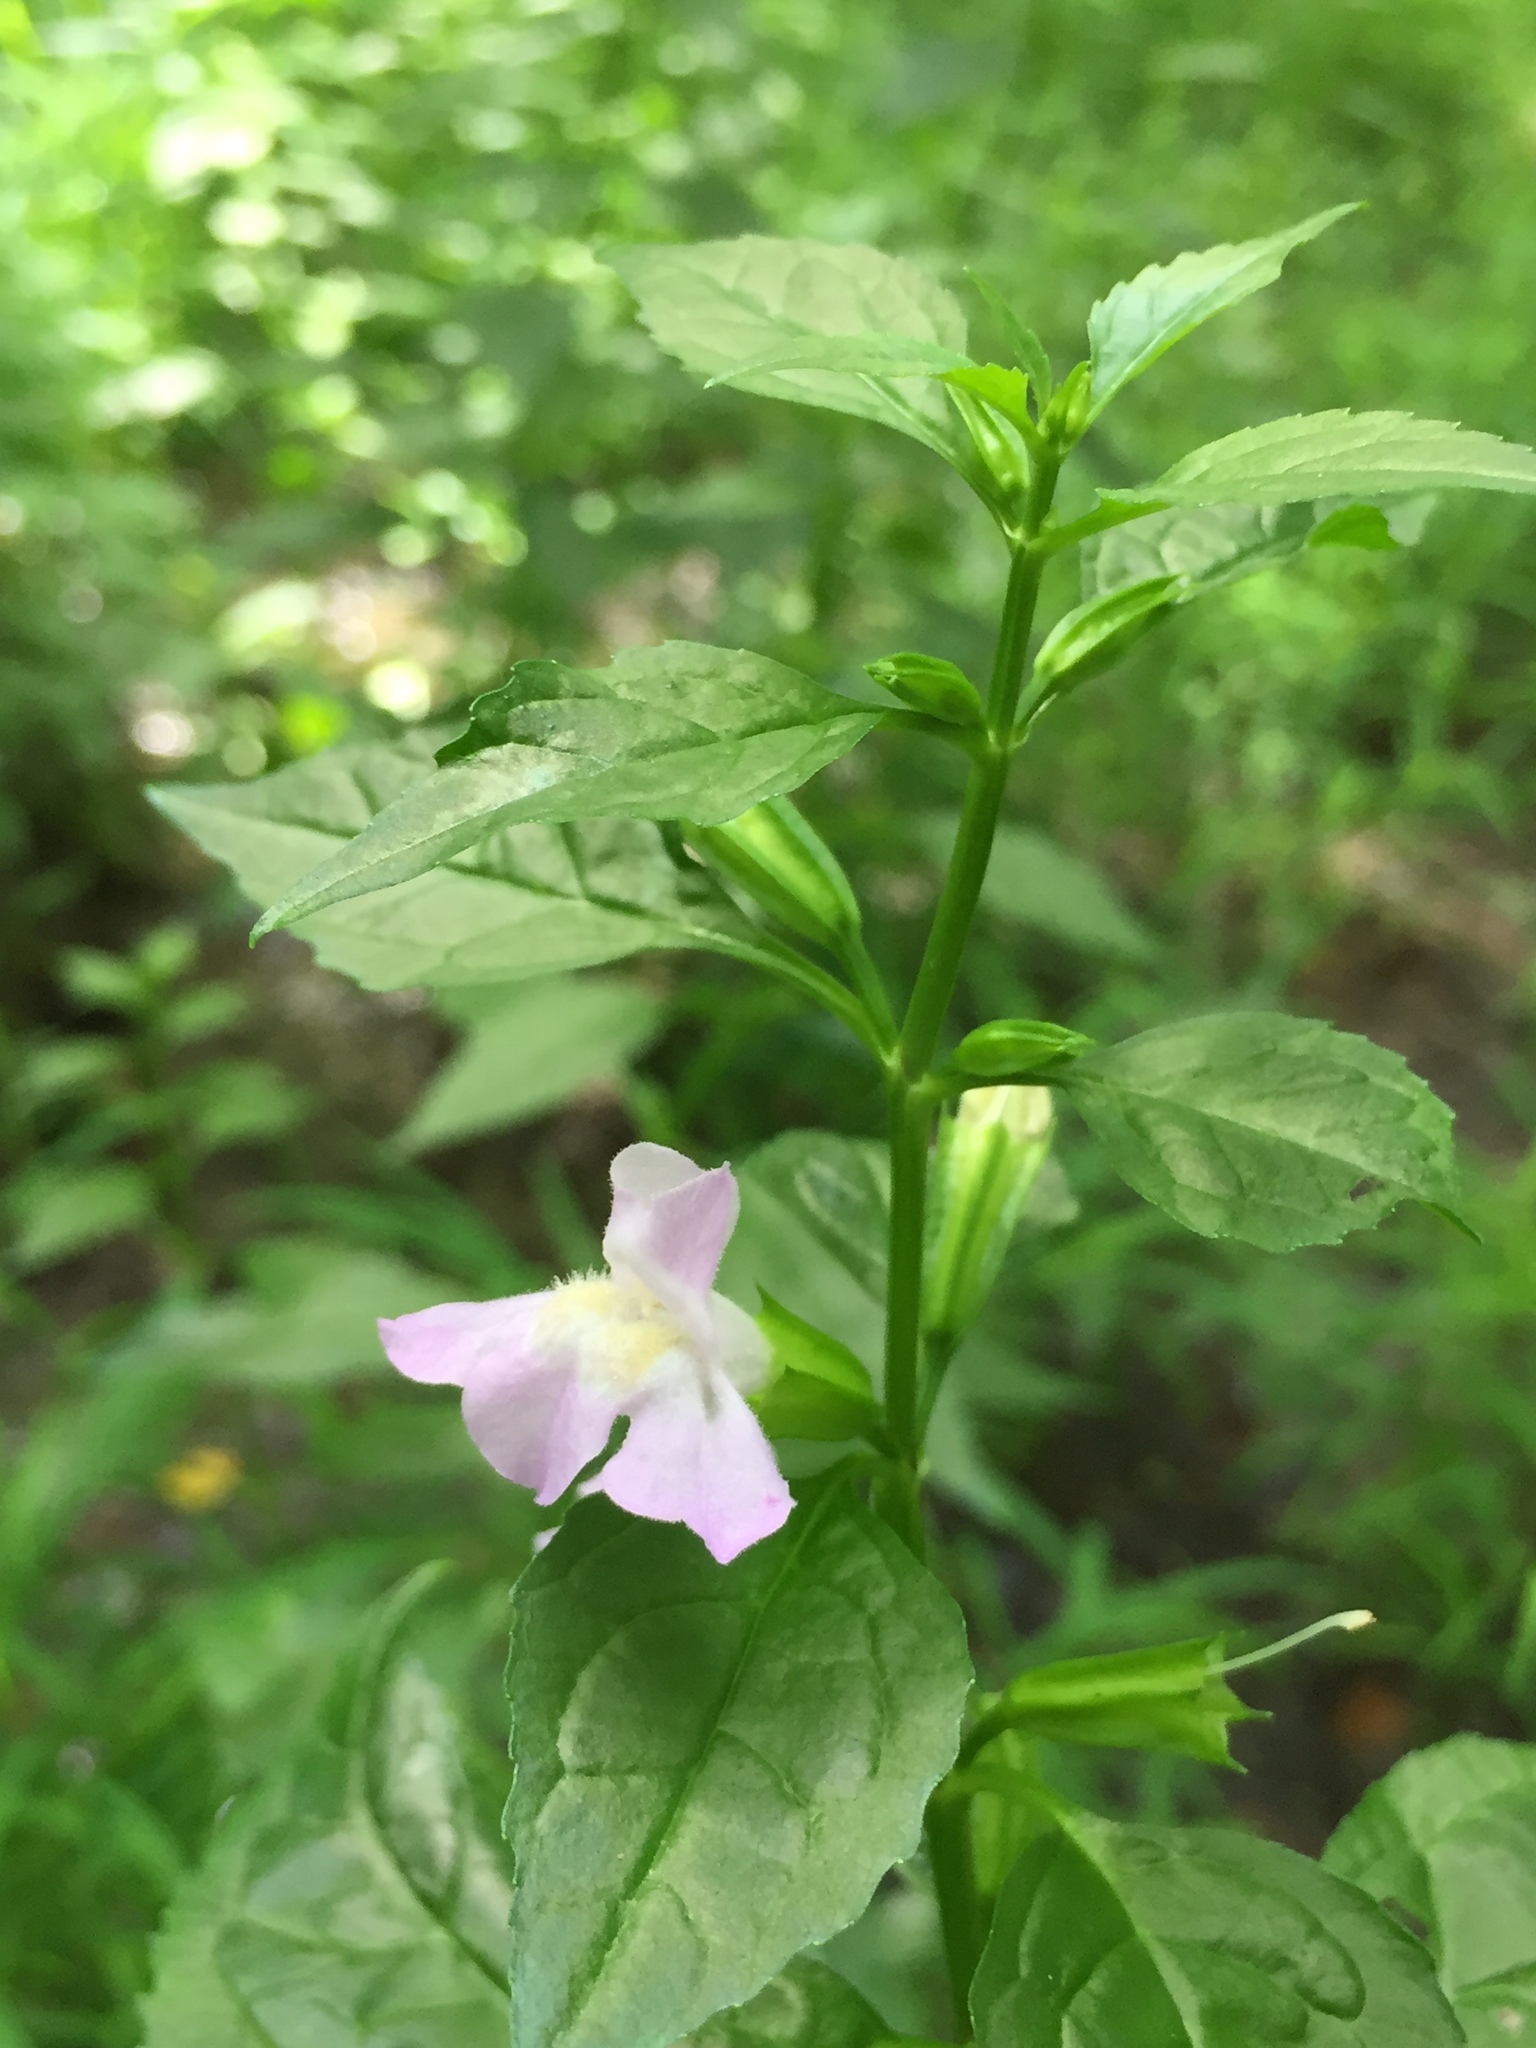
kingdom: Plantae
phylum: Tracheophyta
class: Magnoliopsida
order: Lamiales
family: Phrymaceae
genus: Mimulus
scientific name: Mimulus alatus
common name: Sharp-wing monkey-flower
